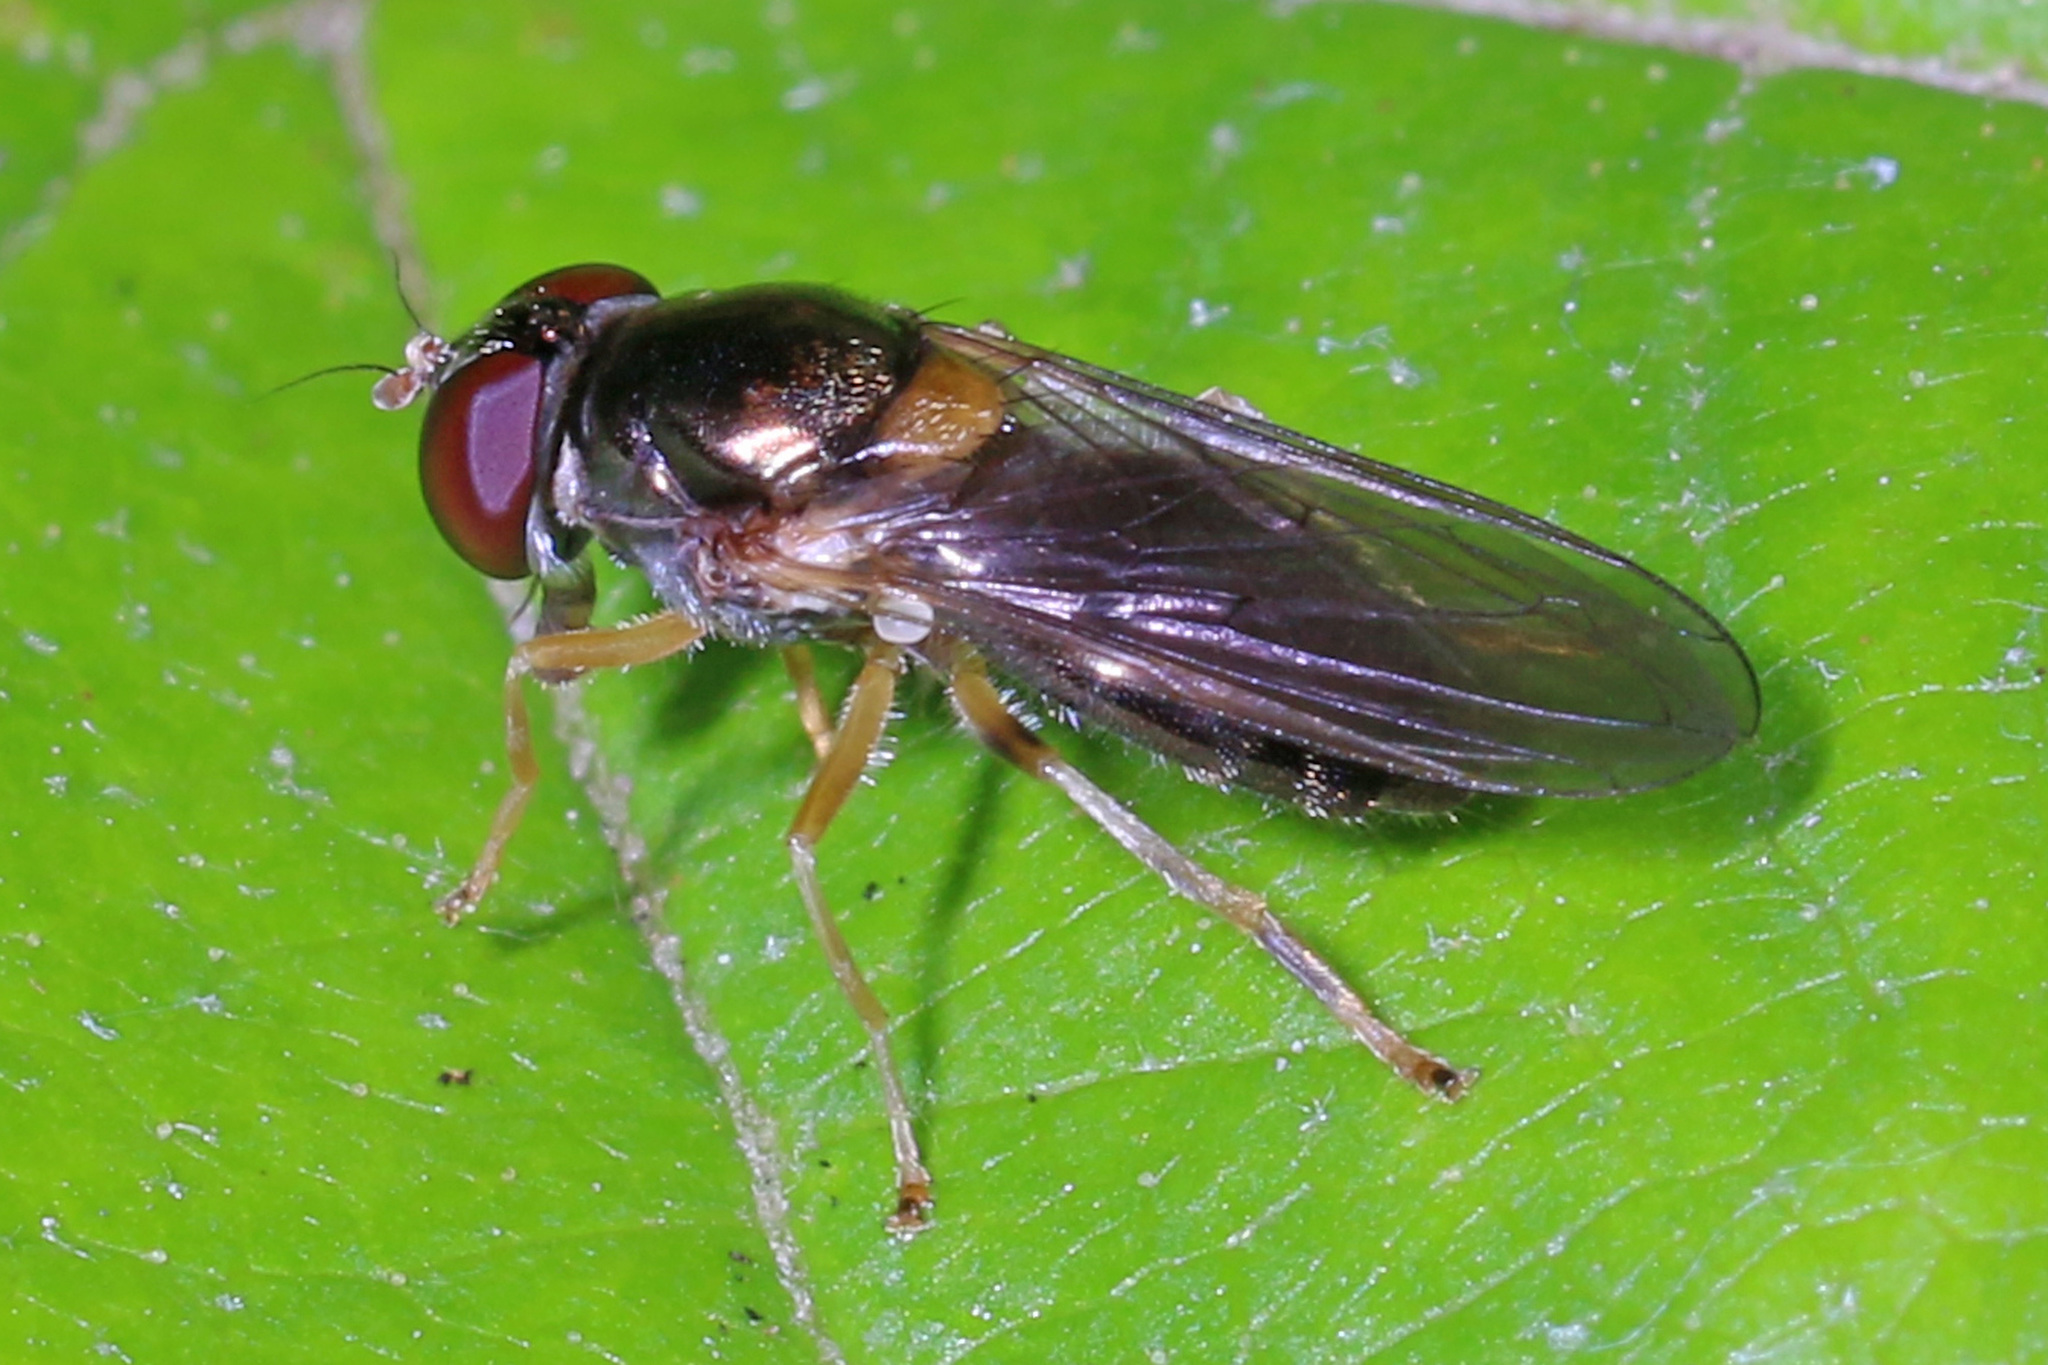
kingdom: Animalia
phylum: Arthropoda
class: Insecta
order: Diptera
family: Syrphidae
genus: Cheilosia
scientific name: Cheilosia pallipes
